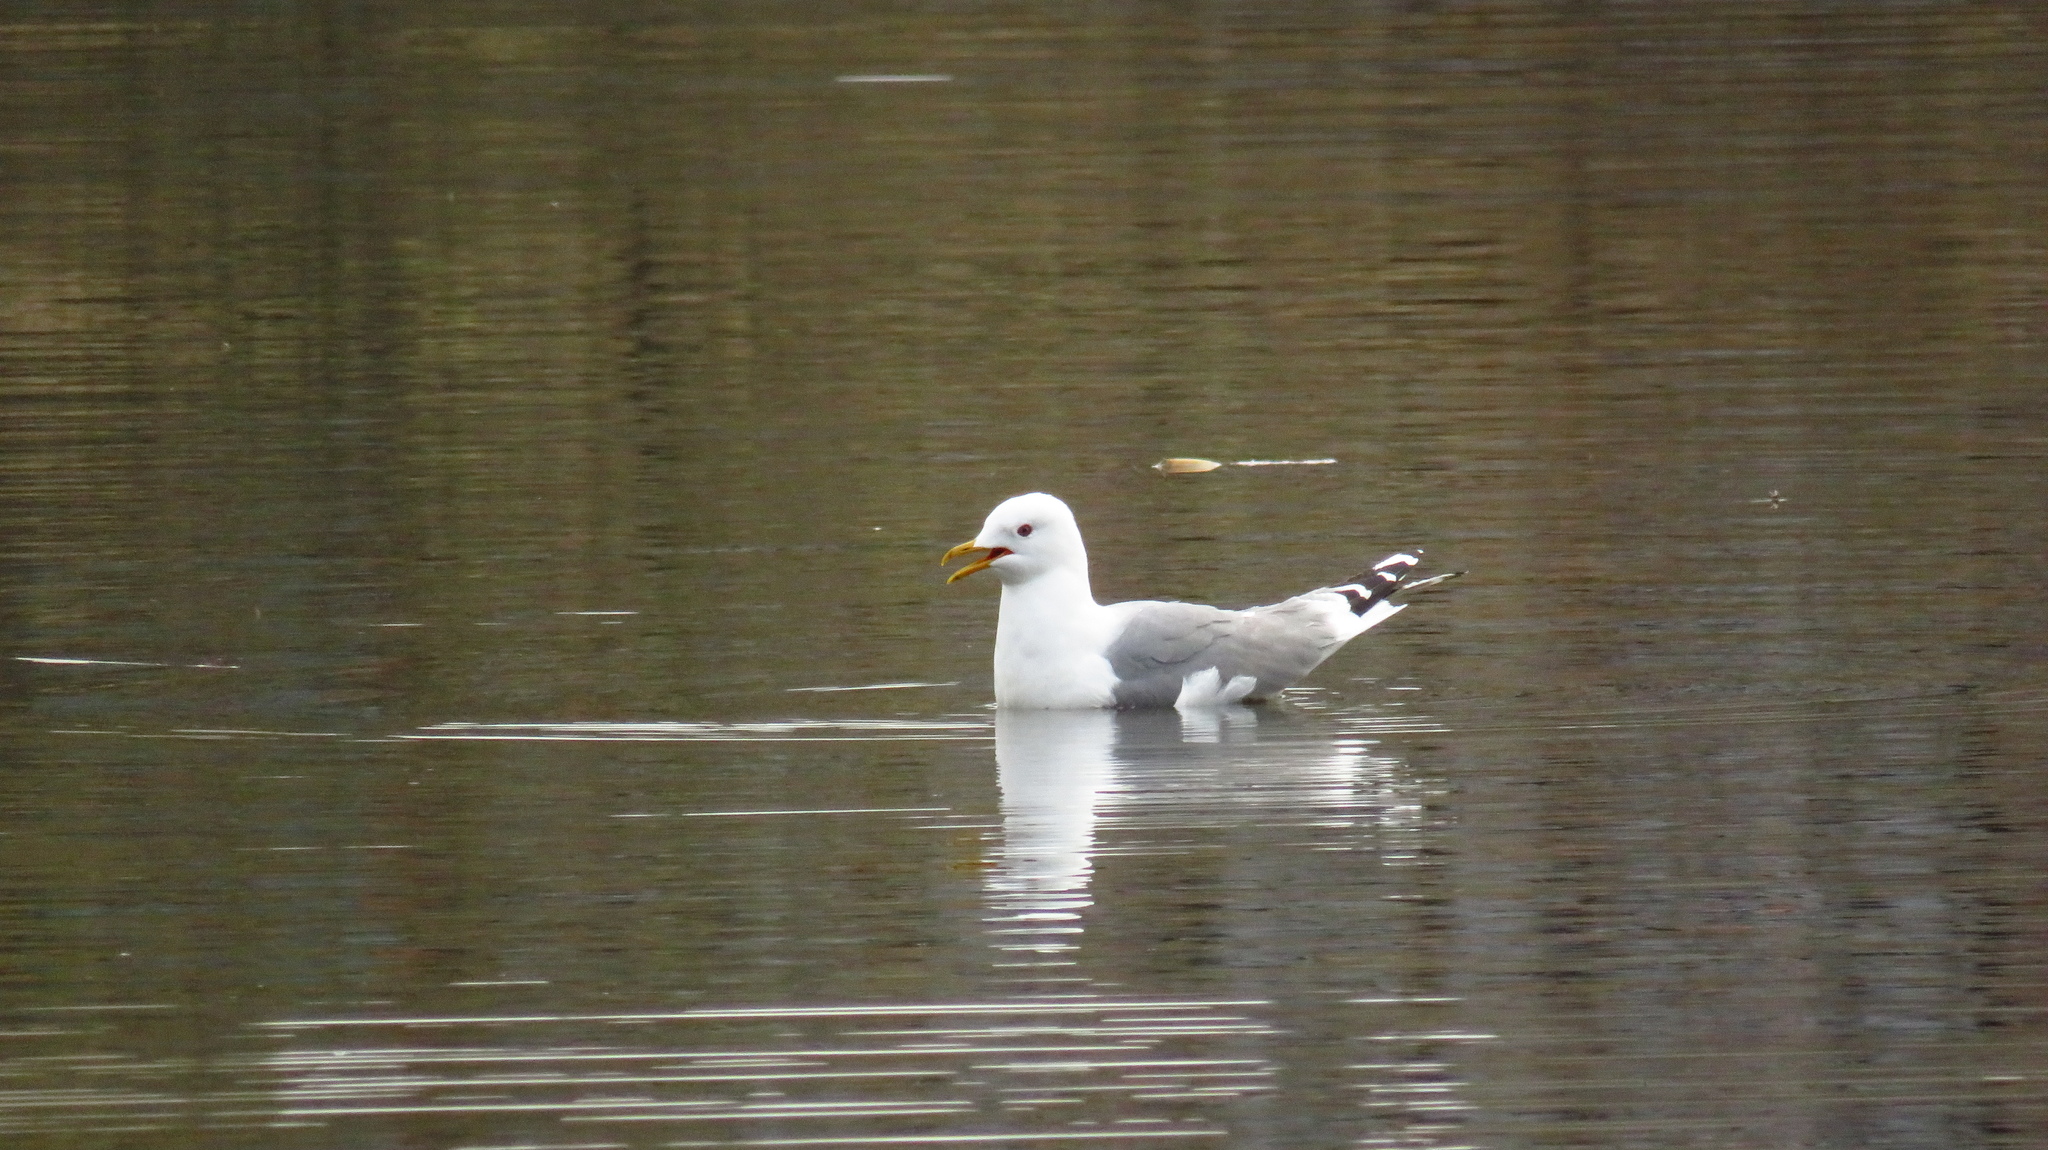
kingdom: Animalia
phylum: Chordata
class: Aves
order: Charadriiformes
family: Laridae
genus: Larus
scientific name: Larus canus
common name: Mew gull
